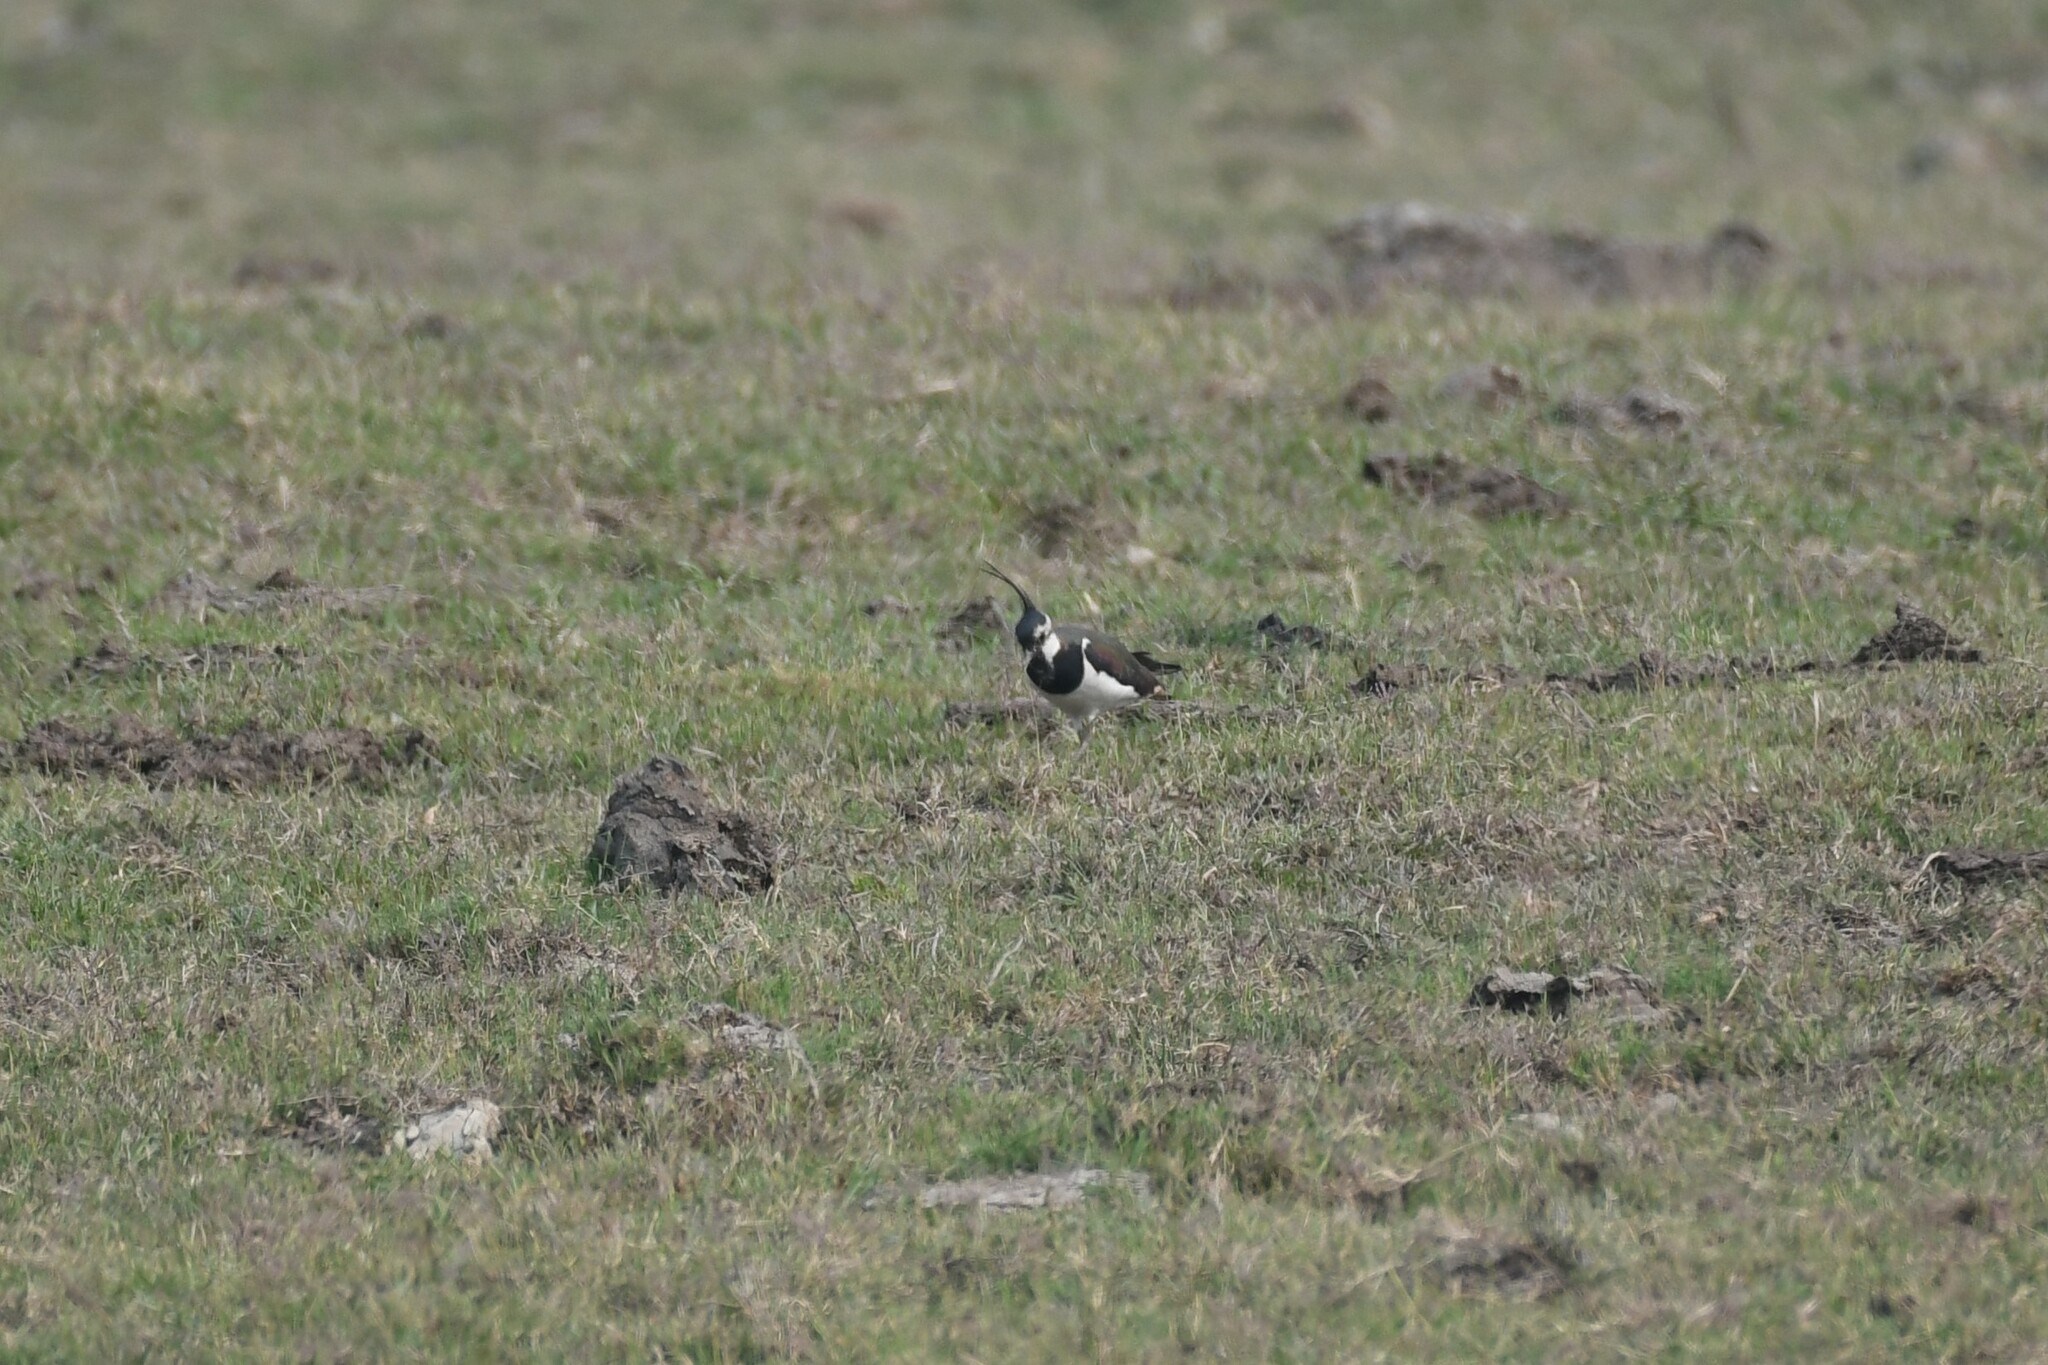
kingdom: Animalia
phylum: Chordata
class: Aves
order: Charadriiformes
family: Charadriidae
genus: Vanellus
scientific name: Vanellus vanellus
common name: Northern lapwing
